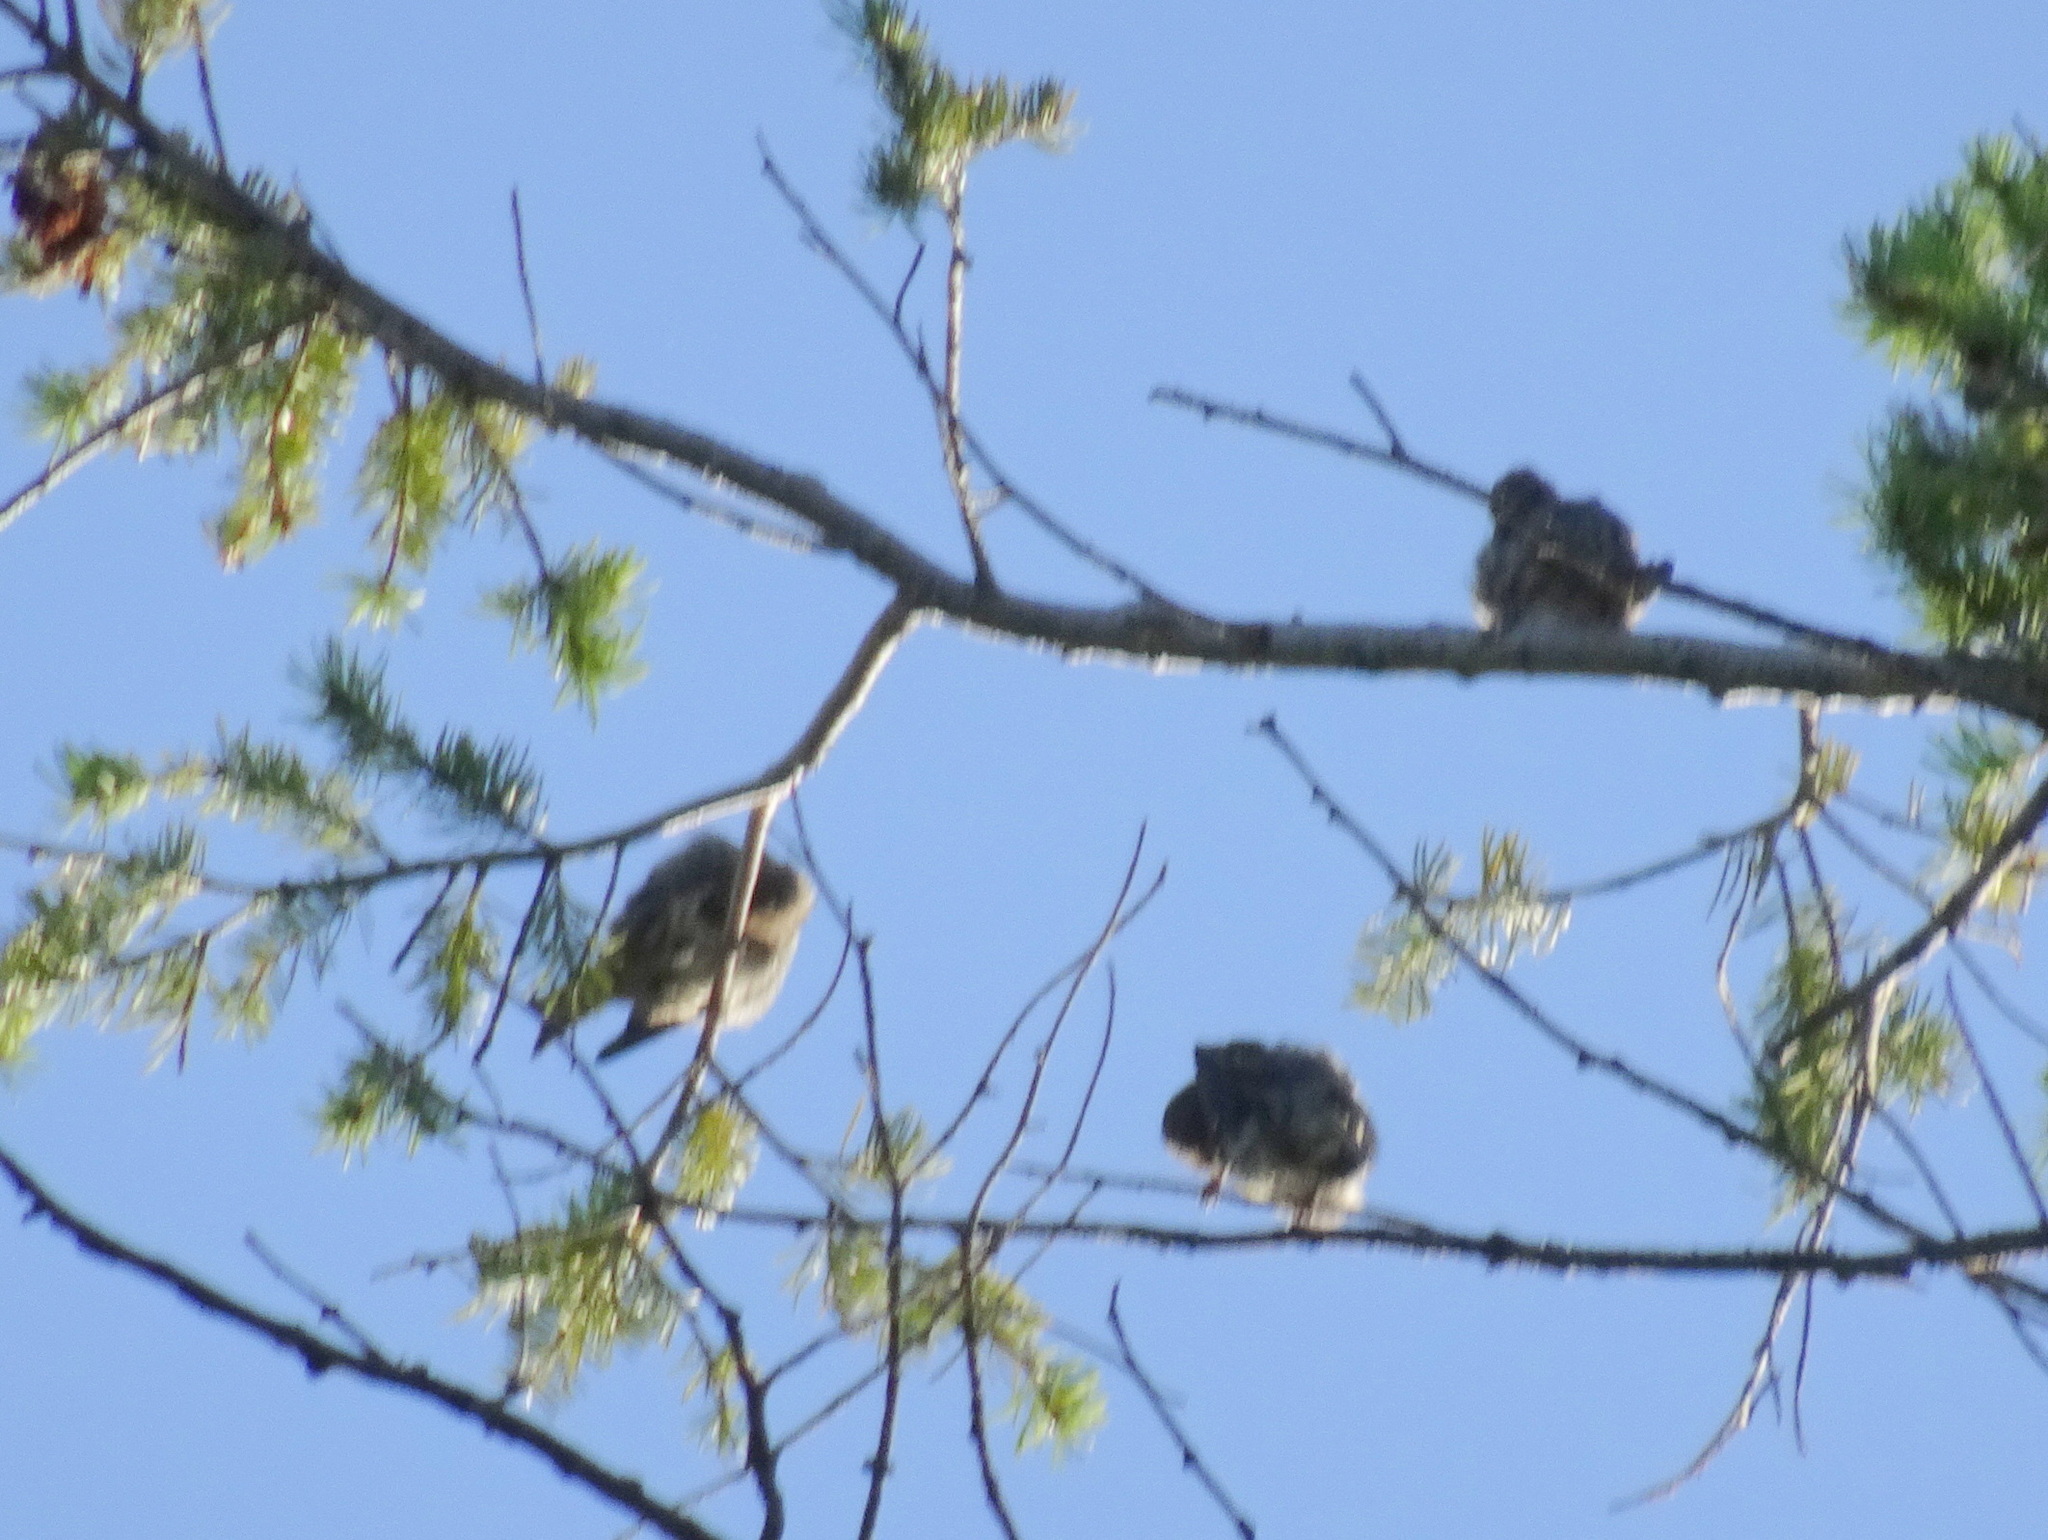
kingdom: Animalia
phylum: Chordata
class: Aves
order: Passeriformes
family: Fringillidae
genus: Spinus
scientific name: Spinus pinus
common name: Pine siskin
